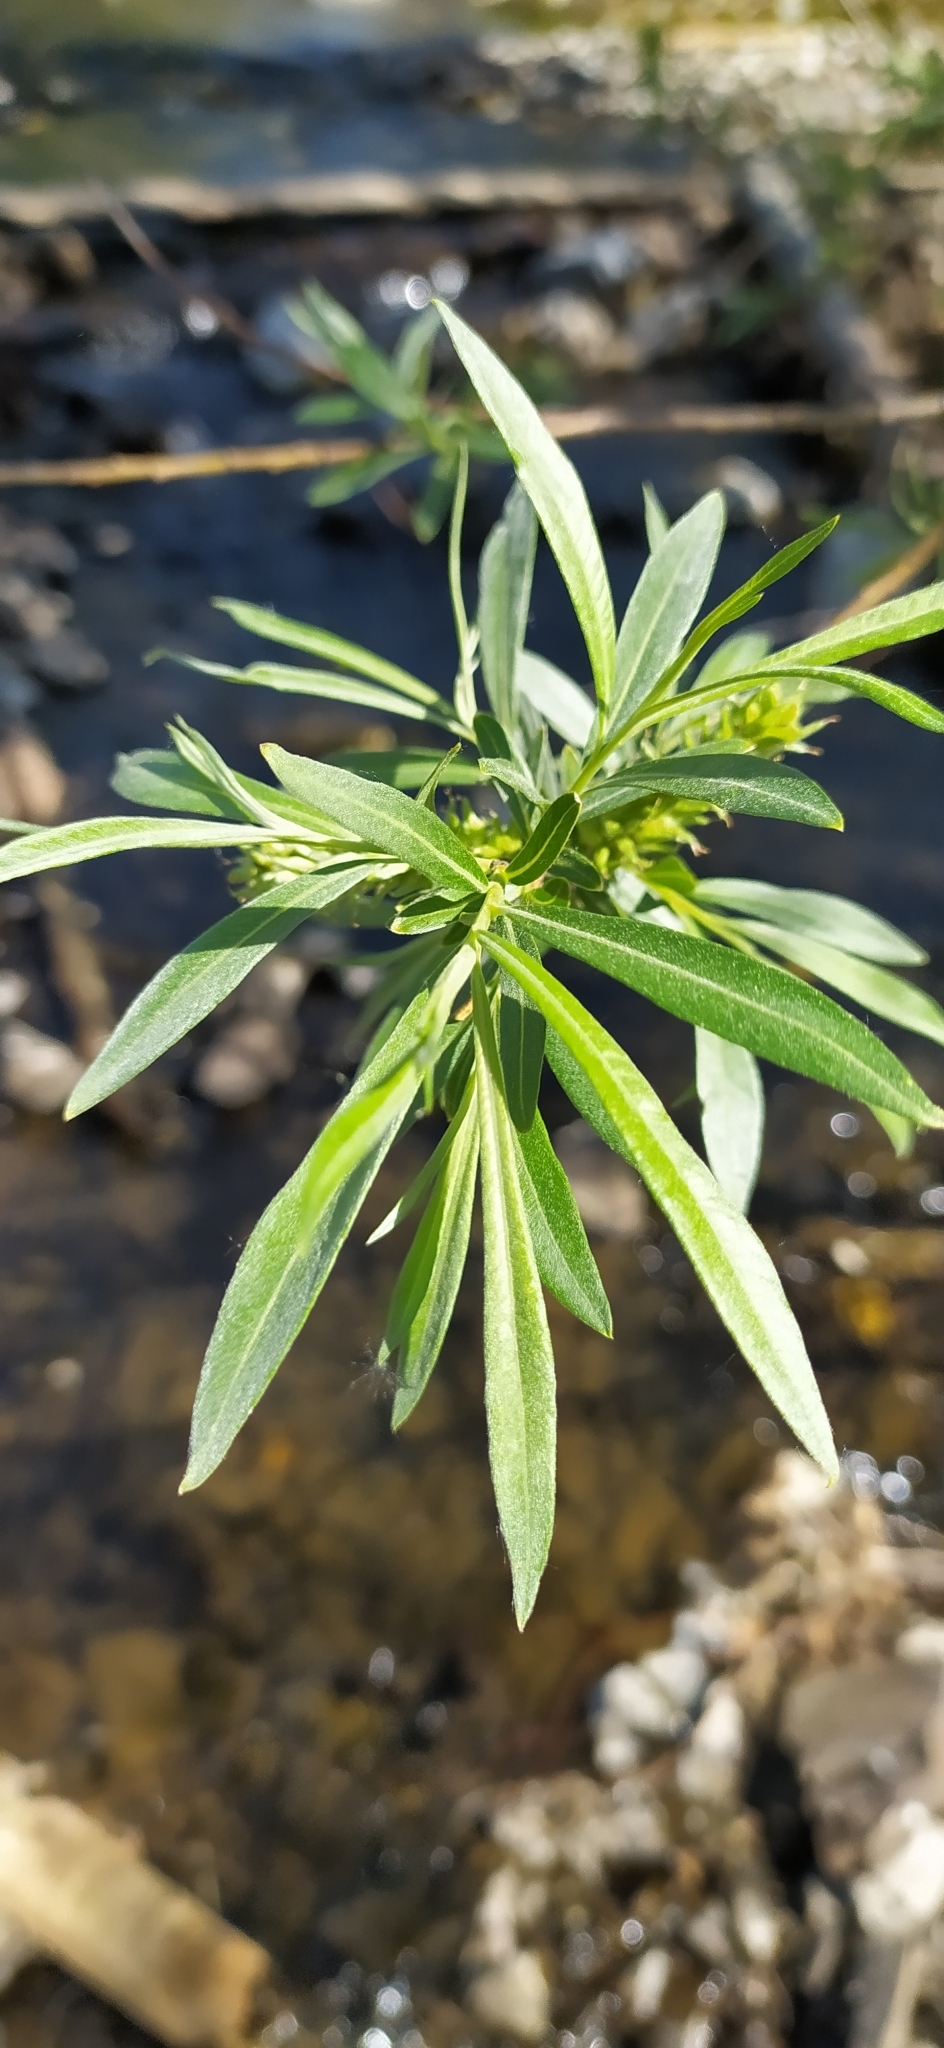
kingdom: Plantae
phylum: Tracheophyta
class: Magnoliopsida
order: Malpighiales
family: Salicaceae
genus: Salix
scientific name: Salix viminalis
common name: Osier
